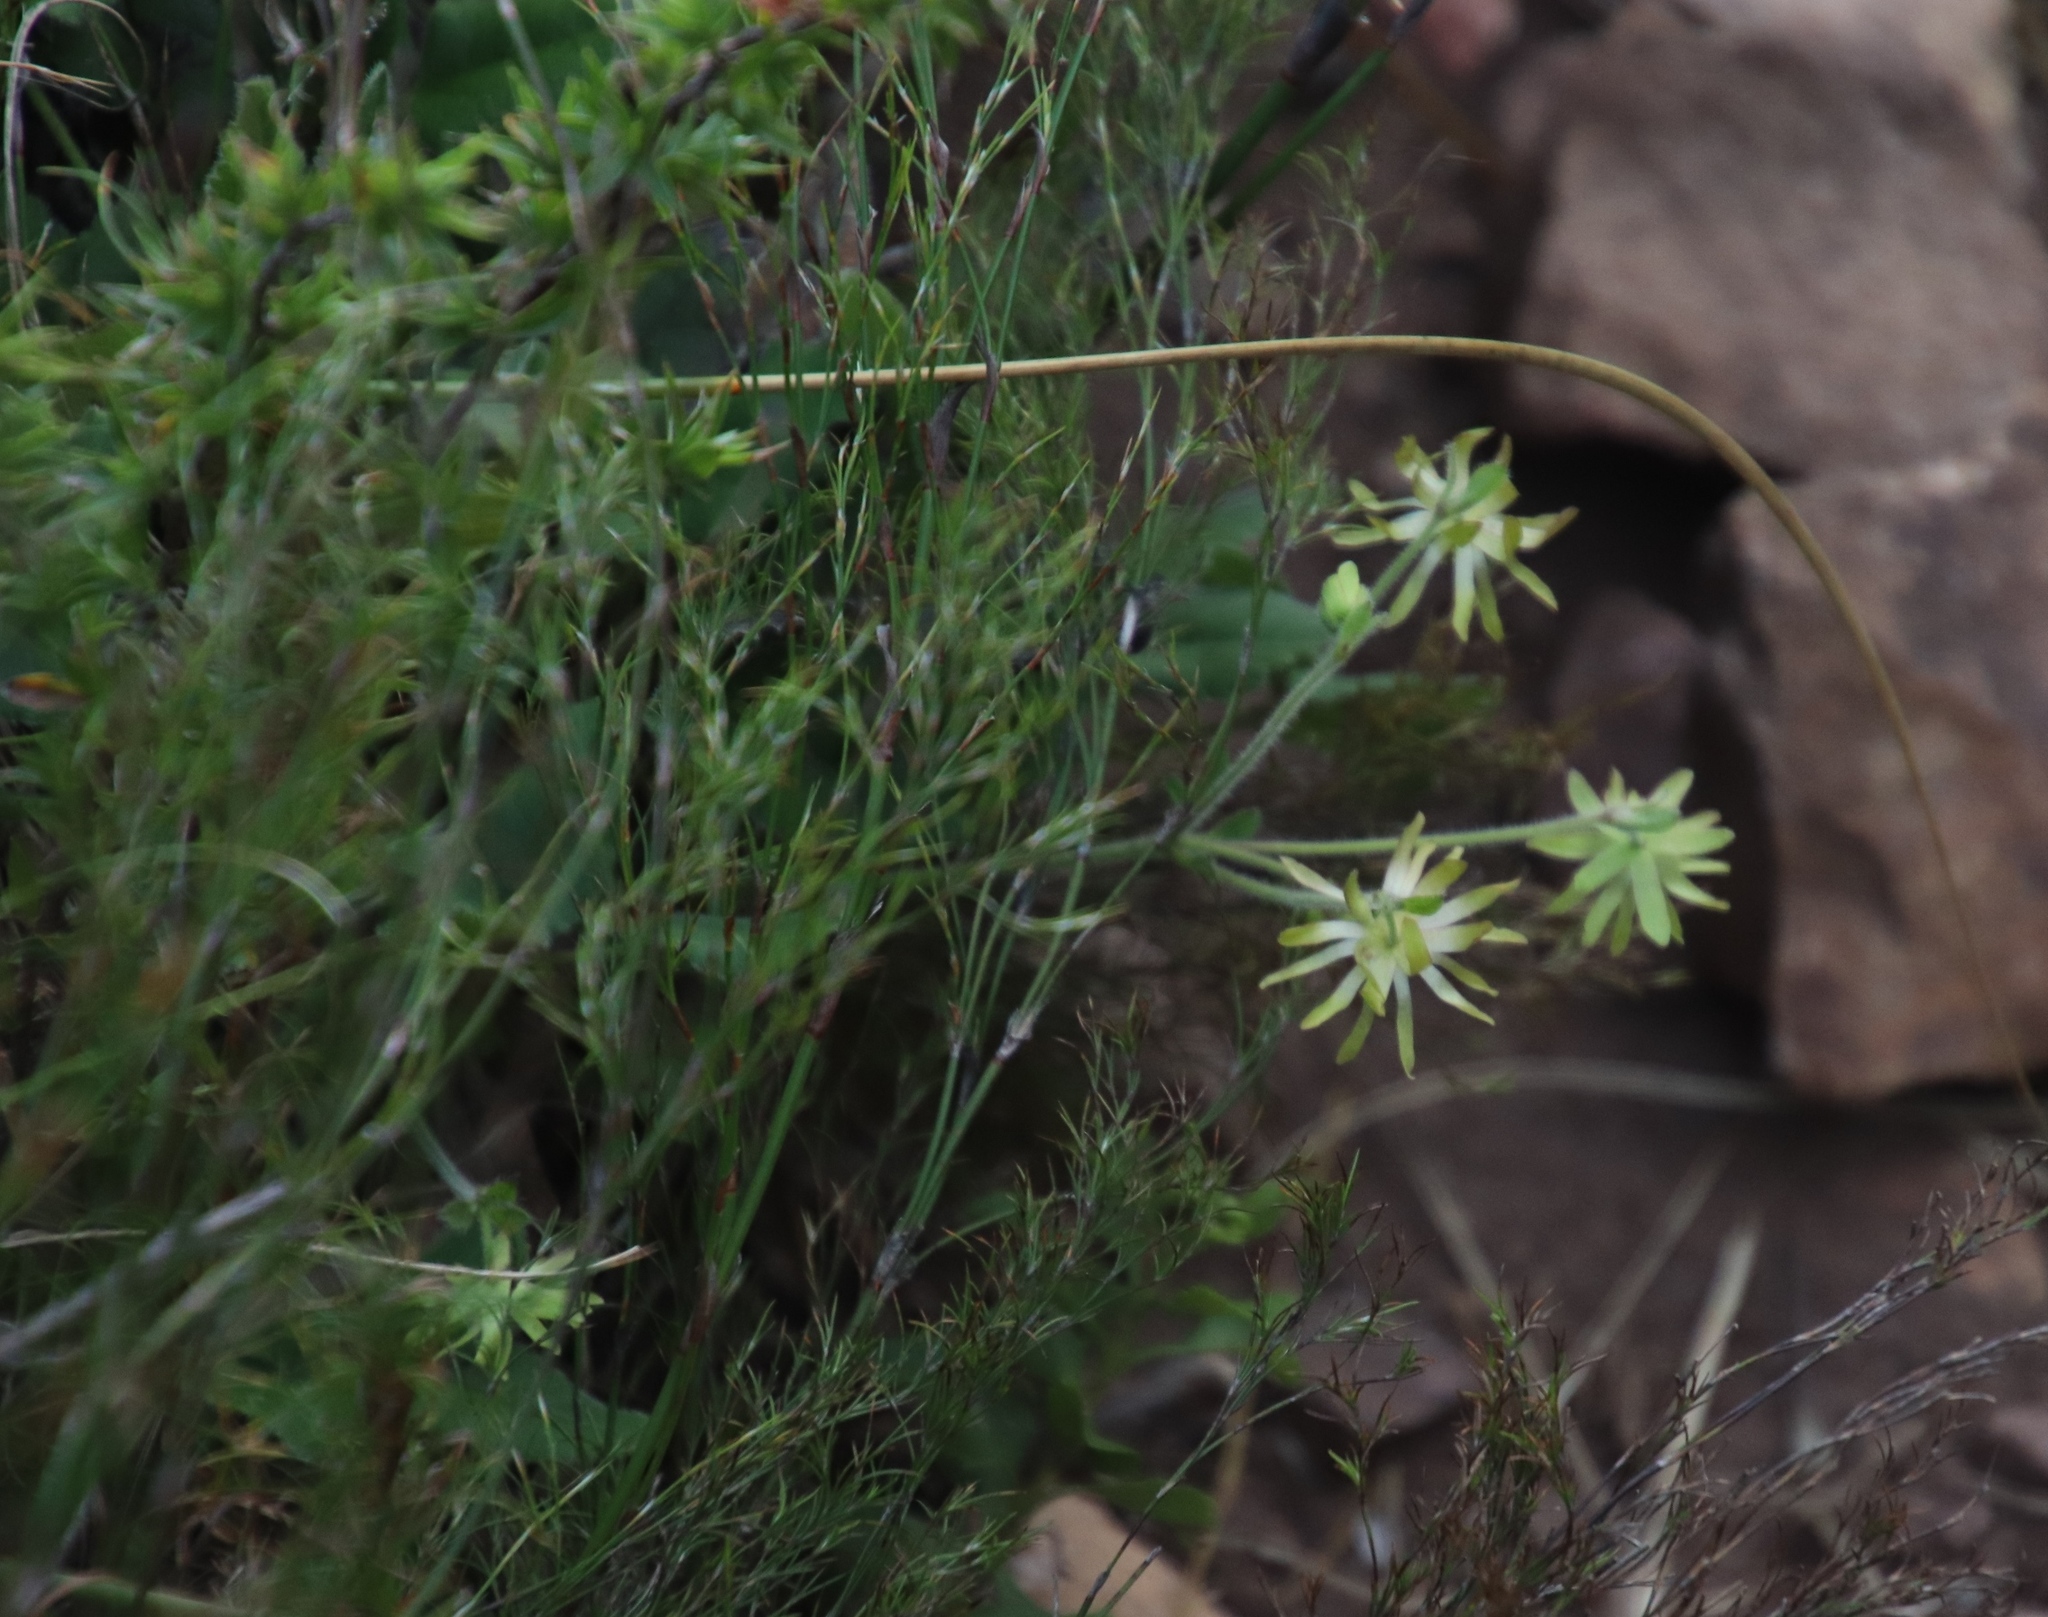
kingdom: Plantae
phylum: Tracheophyta
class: Magnoliopsida
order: Ranunculales
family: Ranunculaceae
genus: Knowltonia
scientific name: Knowltonia vesicatoria
